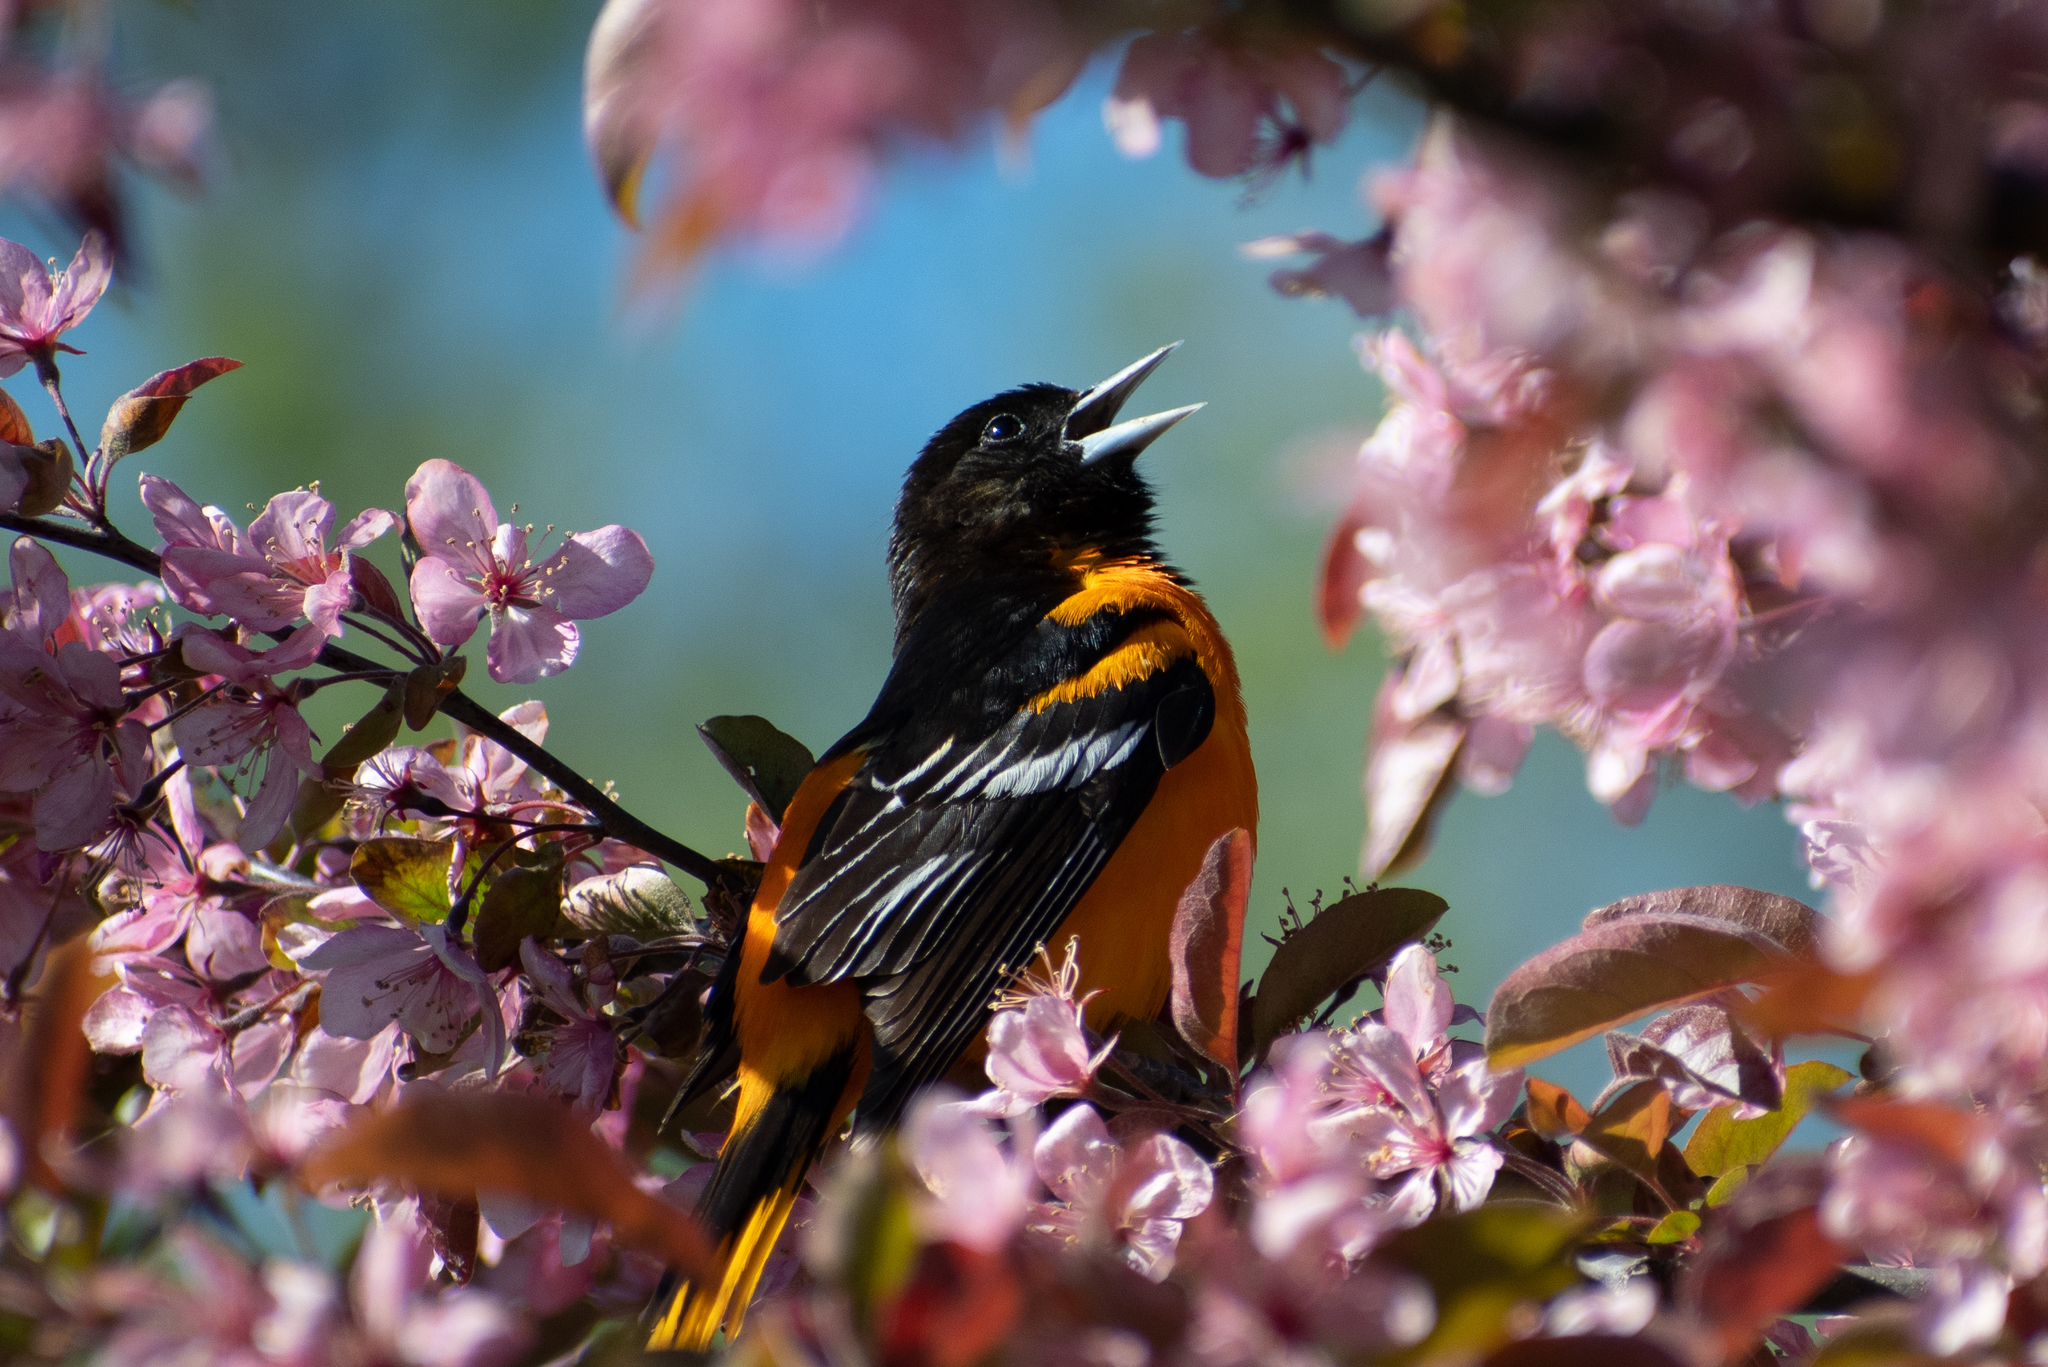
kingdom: Animalia
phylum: Chordata
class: Aves
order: Passeriformes
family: Icteridae
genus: Icterus
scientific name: Icterus galbula
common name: Baltimore oriole
